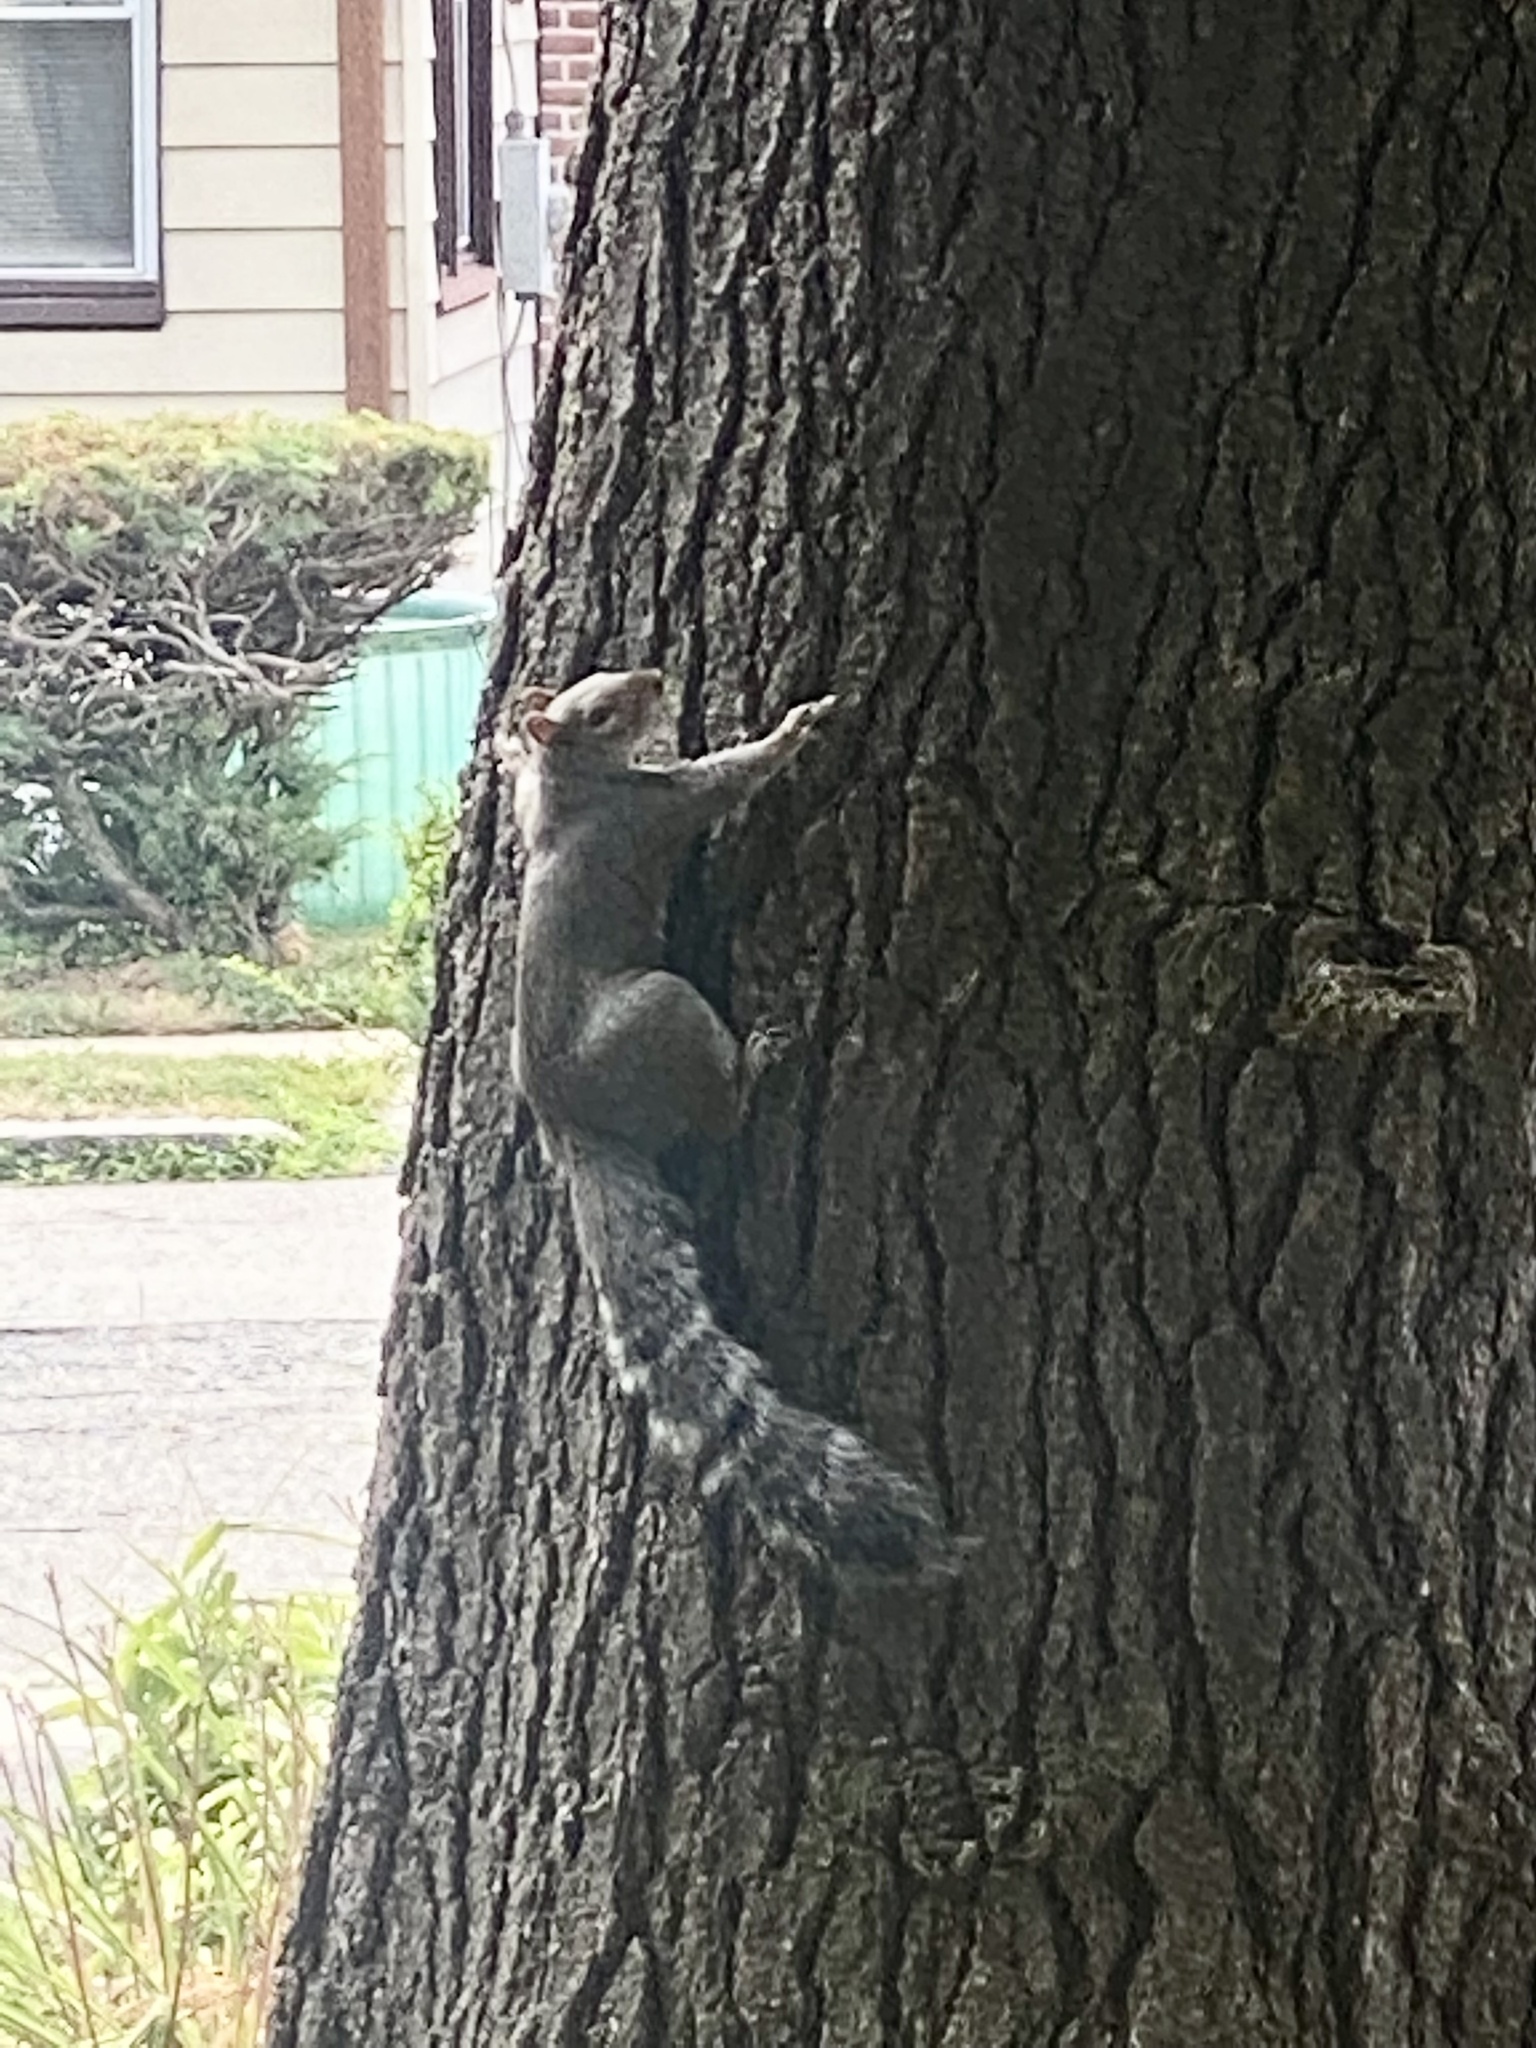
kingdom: Animalia
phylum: Chordata
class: Mammalia
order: Rodentia
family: Sciuridae
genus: Sciurus
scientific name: Sciurus carolinensis
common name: Eastern gray squirrel
